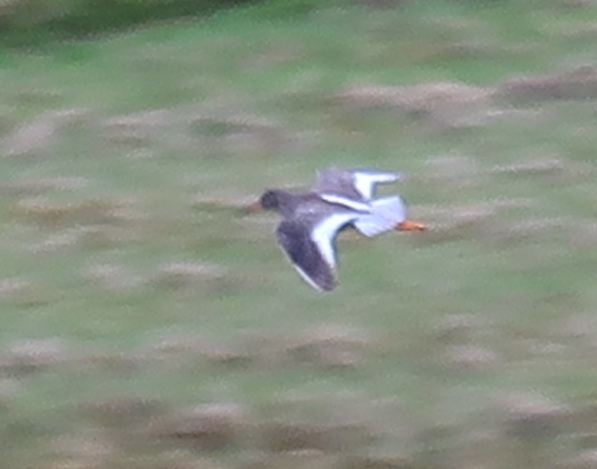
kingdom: Animalia
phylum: Chordata
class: Aves
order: Charadriiformes
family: Scolopacidae
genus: Tringa
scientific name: Tringa totanus
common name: Common redshank
